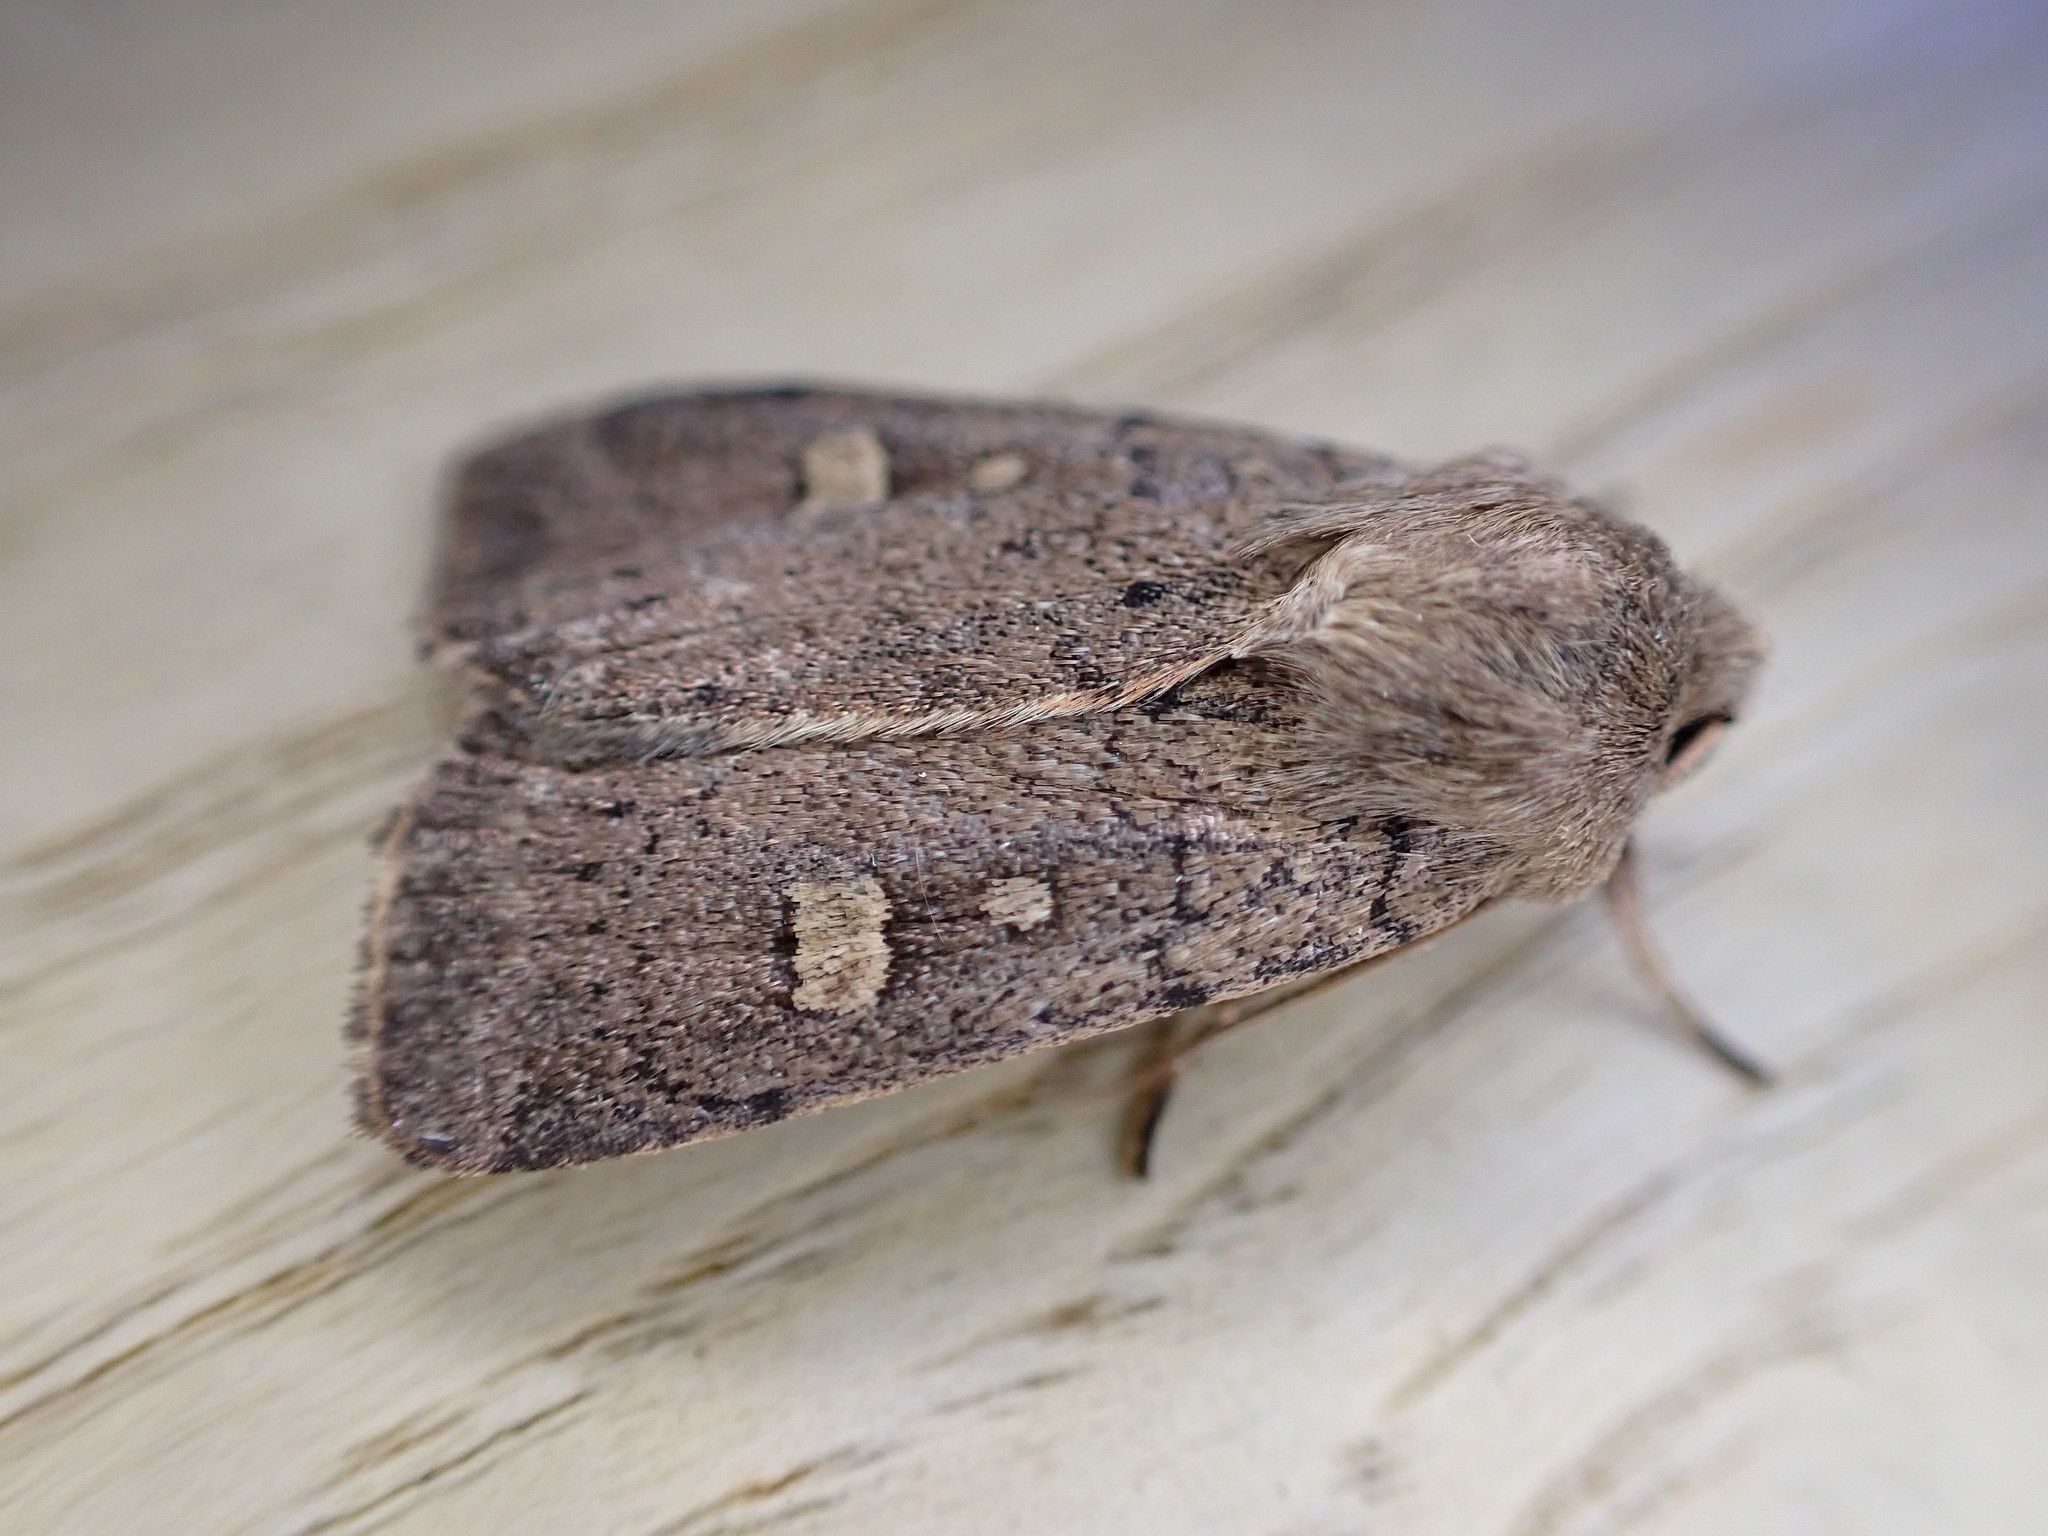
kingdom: Animalia
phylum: Arthropoda
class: Insecta
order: Lepidoptera
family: Noctuidae
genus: Xestia
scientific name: Xestia xanthographa
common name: Square-spot rustic
